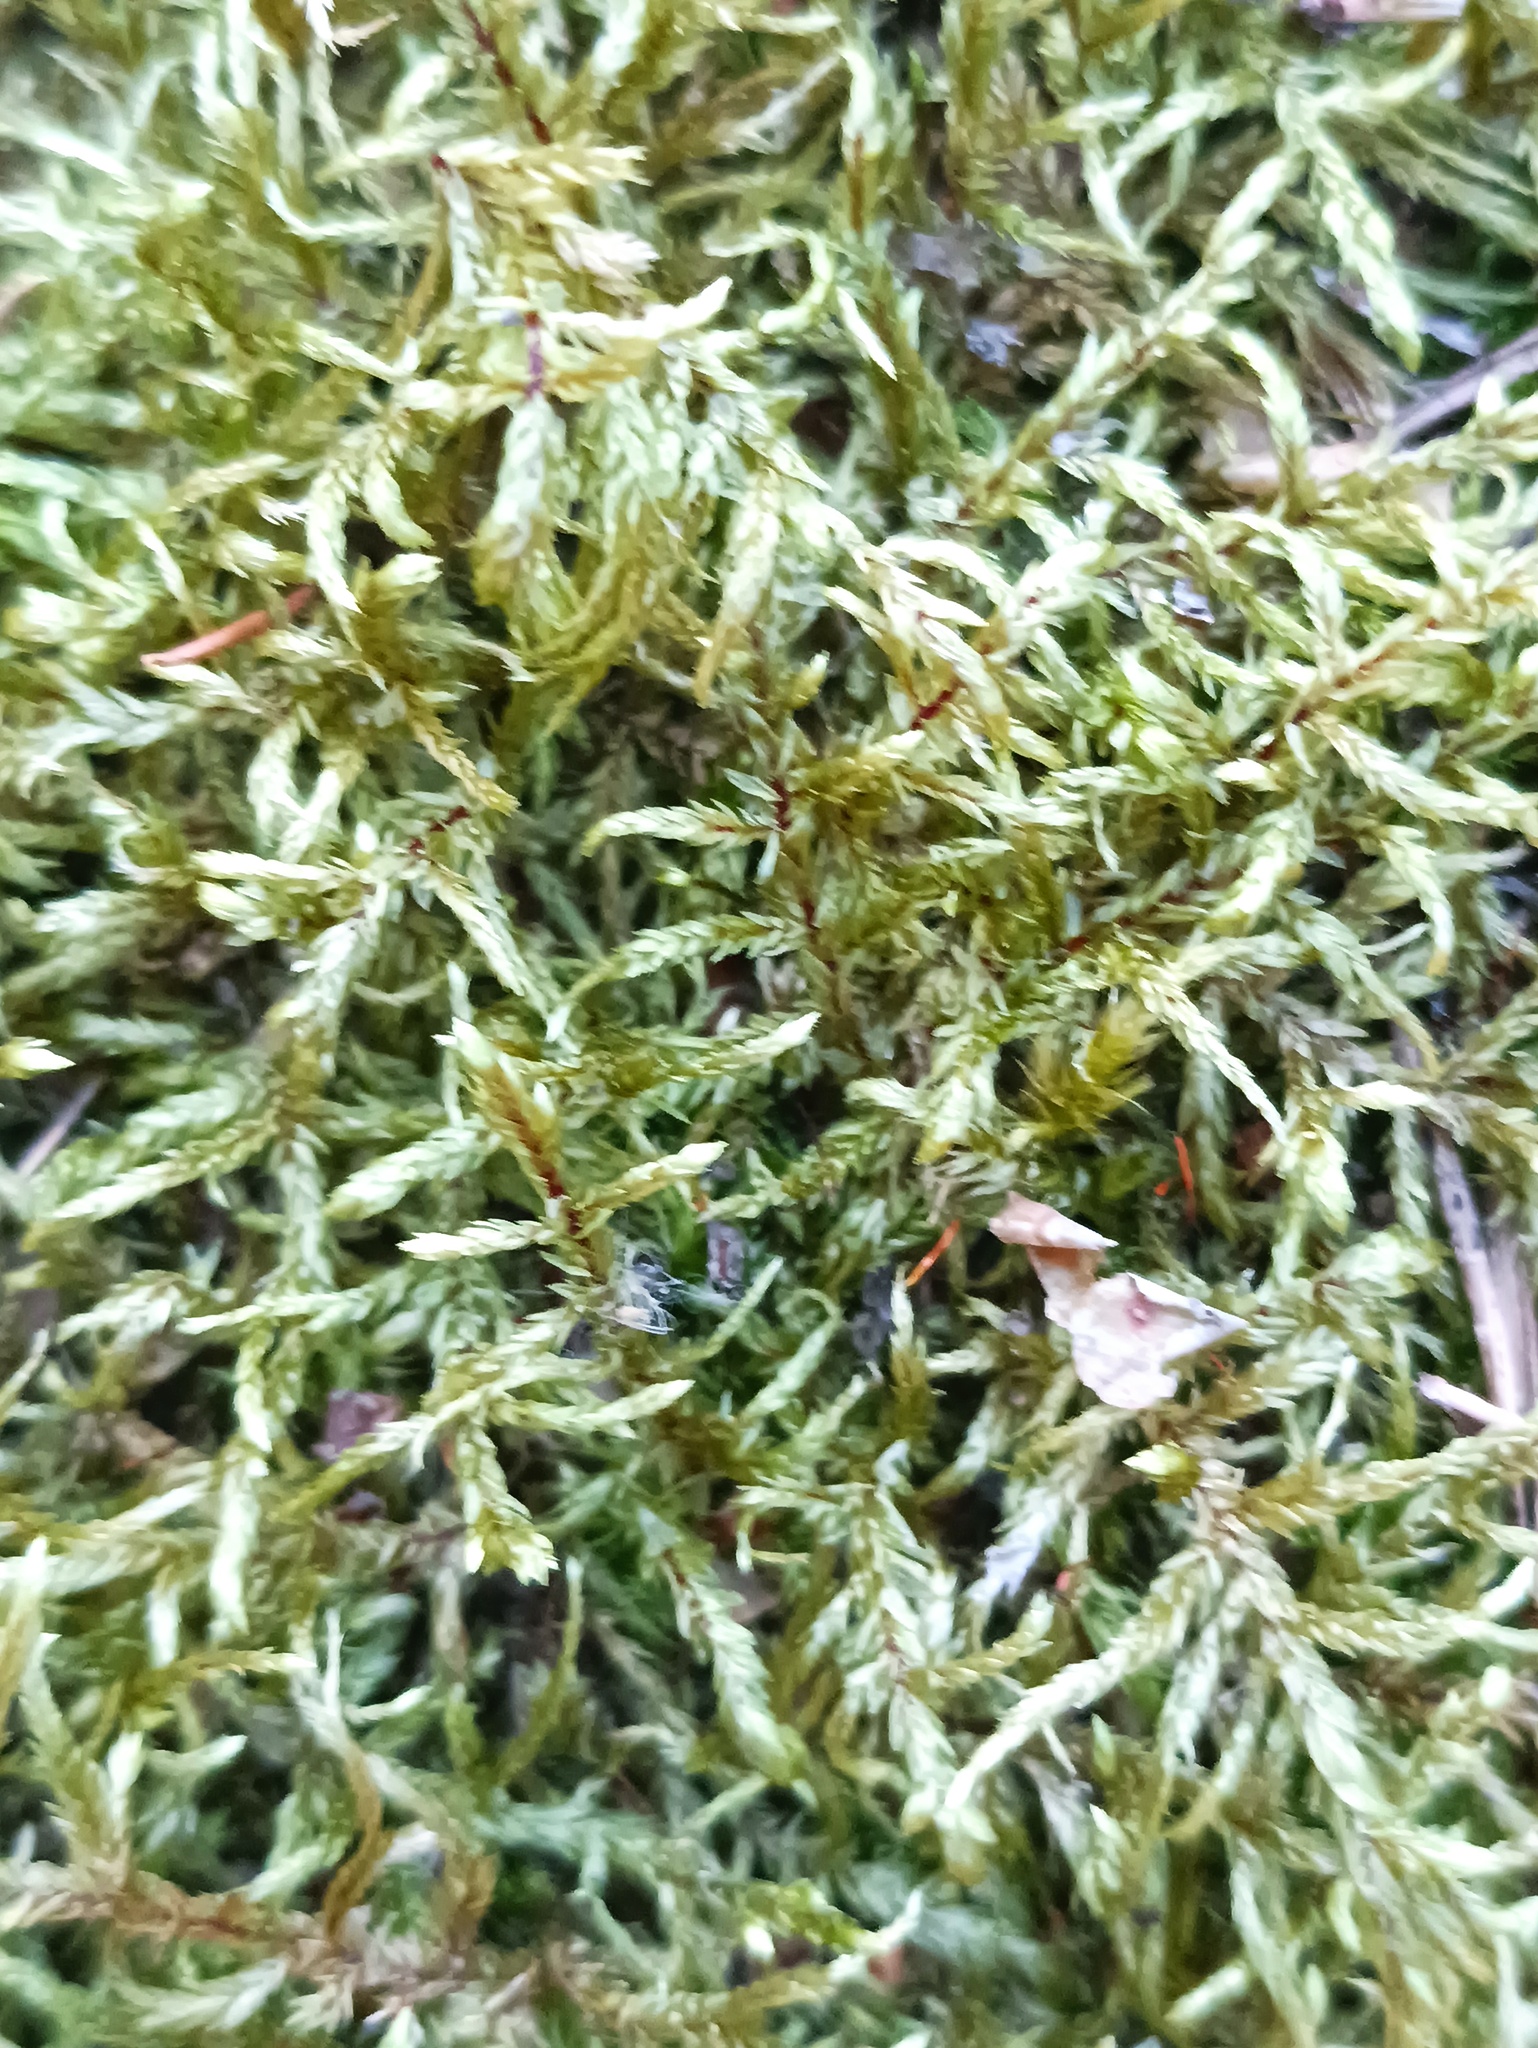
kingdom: Plantae
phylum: Bryophyta
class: Bryopsida
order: Hypnales
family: Hylocomiaceae
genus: Pleurozium
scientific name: Pleurozium schreberi
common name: Red-stemmed feather moss
